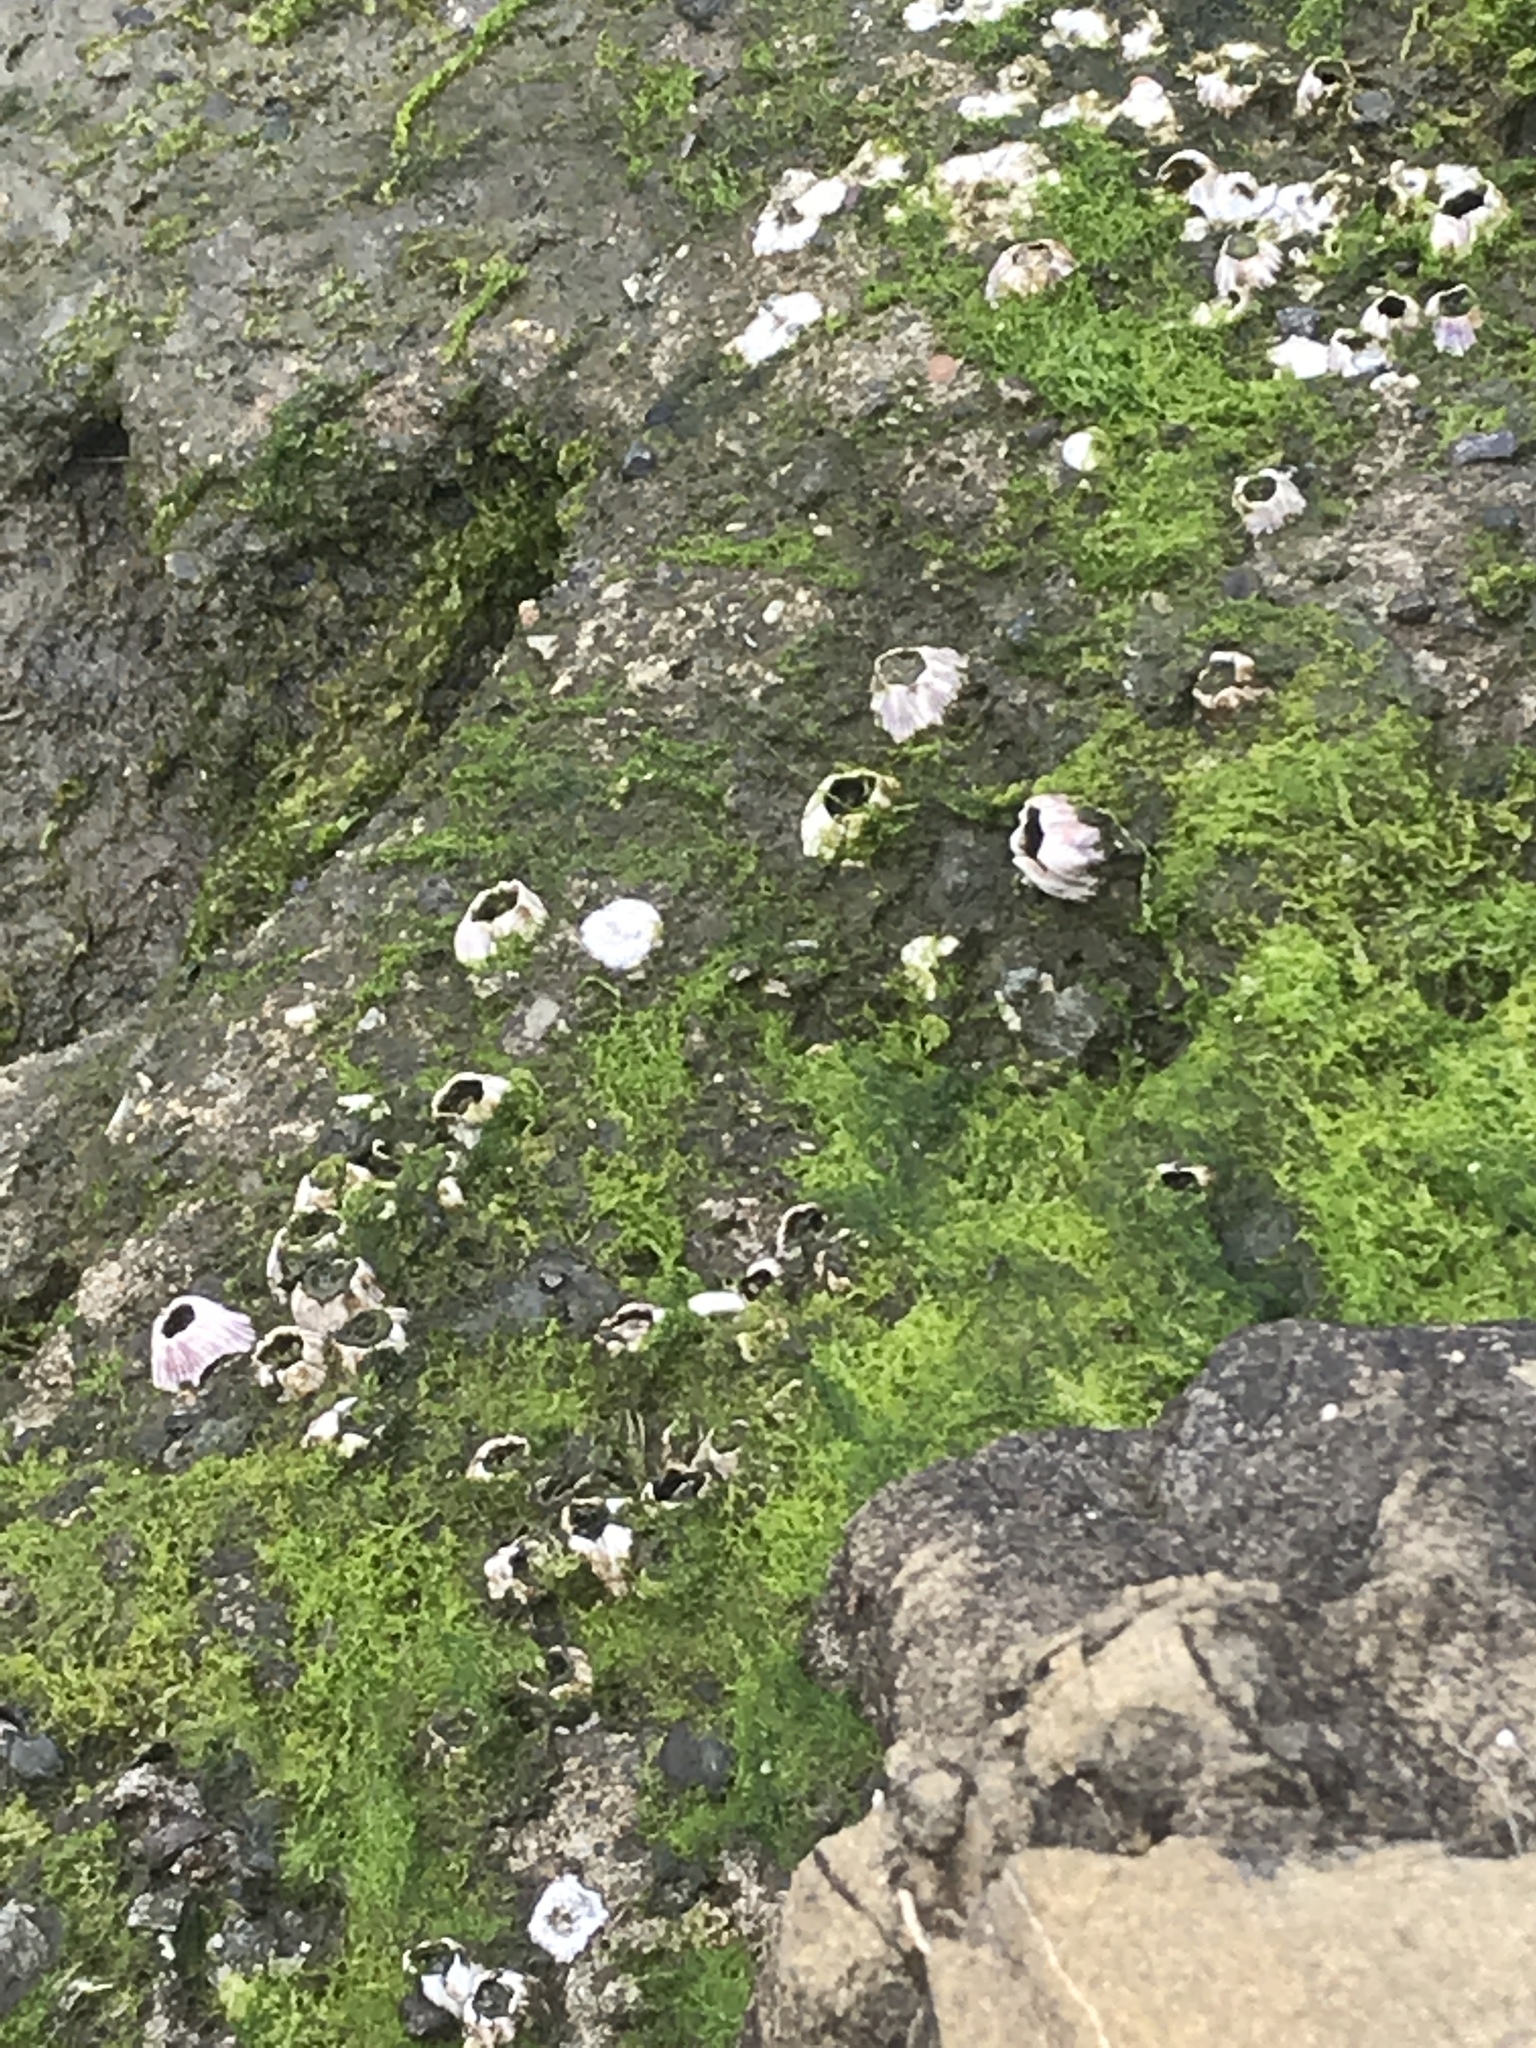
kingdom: Animalia
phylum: Arthropoda
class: Maxillopoda
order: Sessilia
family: Balanidae
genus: Amphibalanus
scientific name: Amphibalanus amphitrite
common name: Striped acorn barnacle
